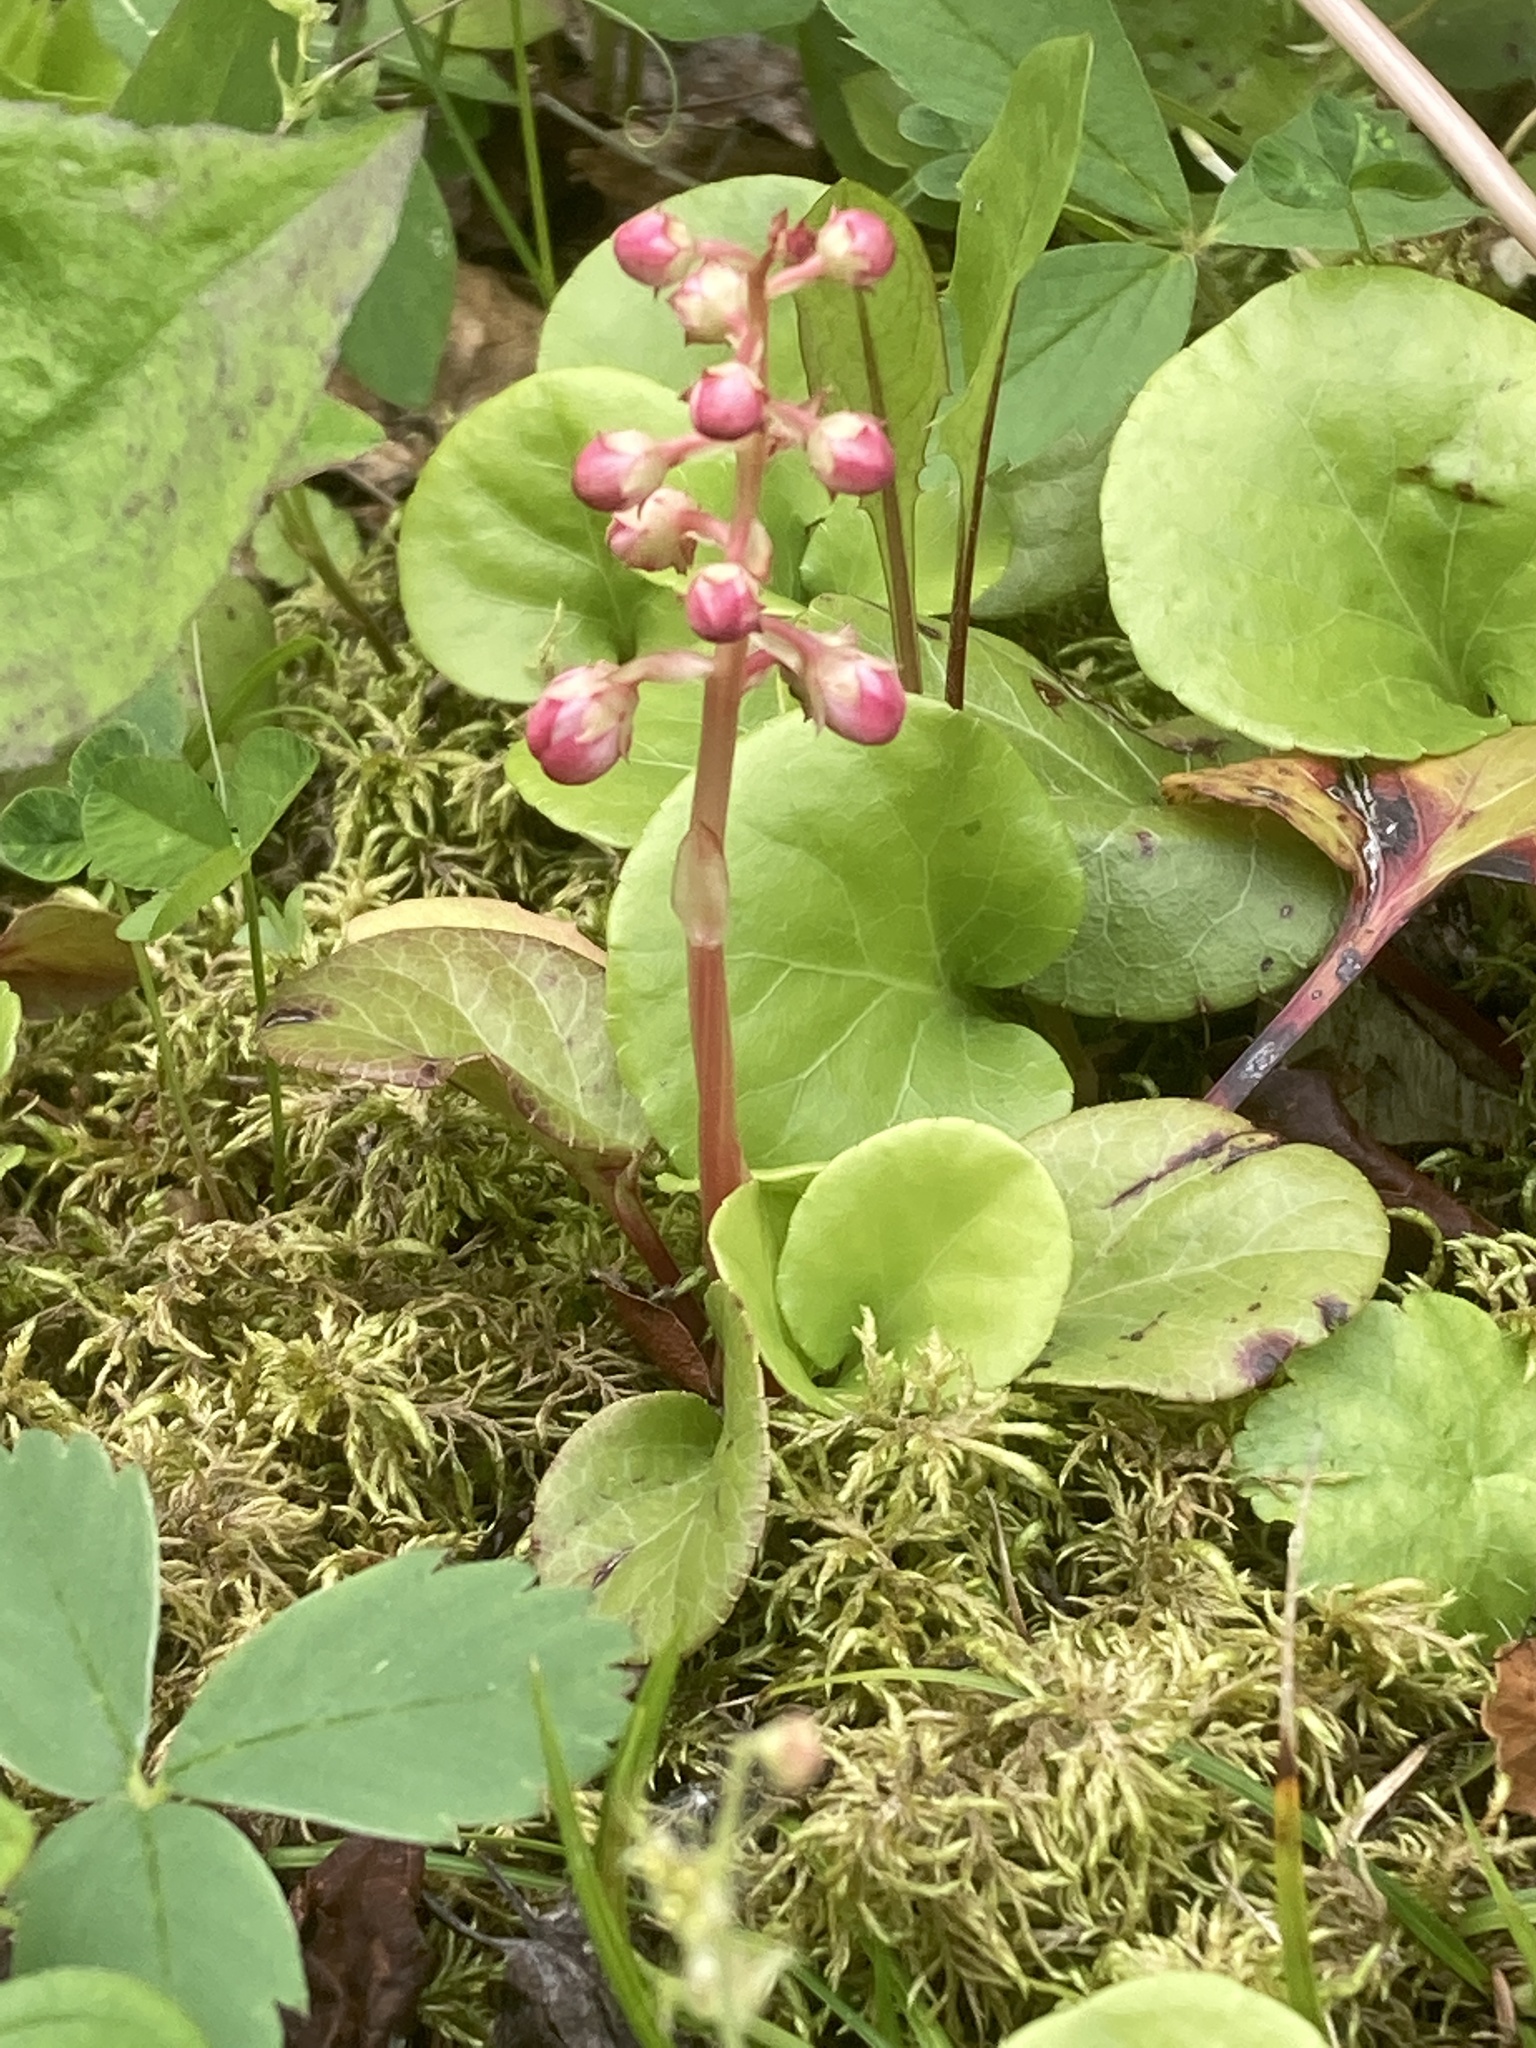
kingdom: Plantae
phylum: Tracheophyta
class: Magnoliopsida
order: Ericales
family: Ericaceae
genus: Pyrola
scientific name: Pyrola asarifolia
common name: Bog wintergreen
